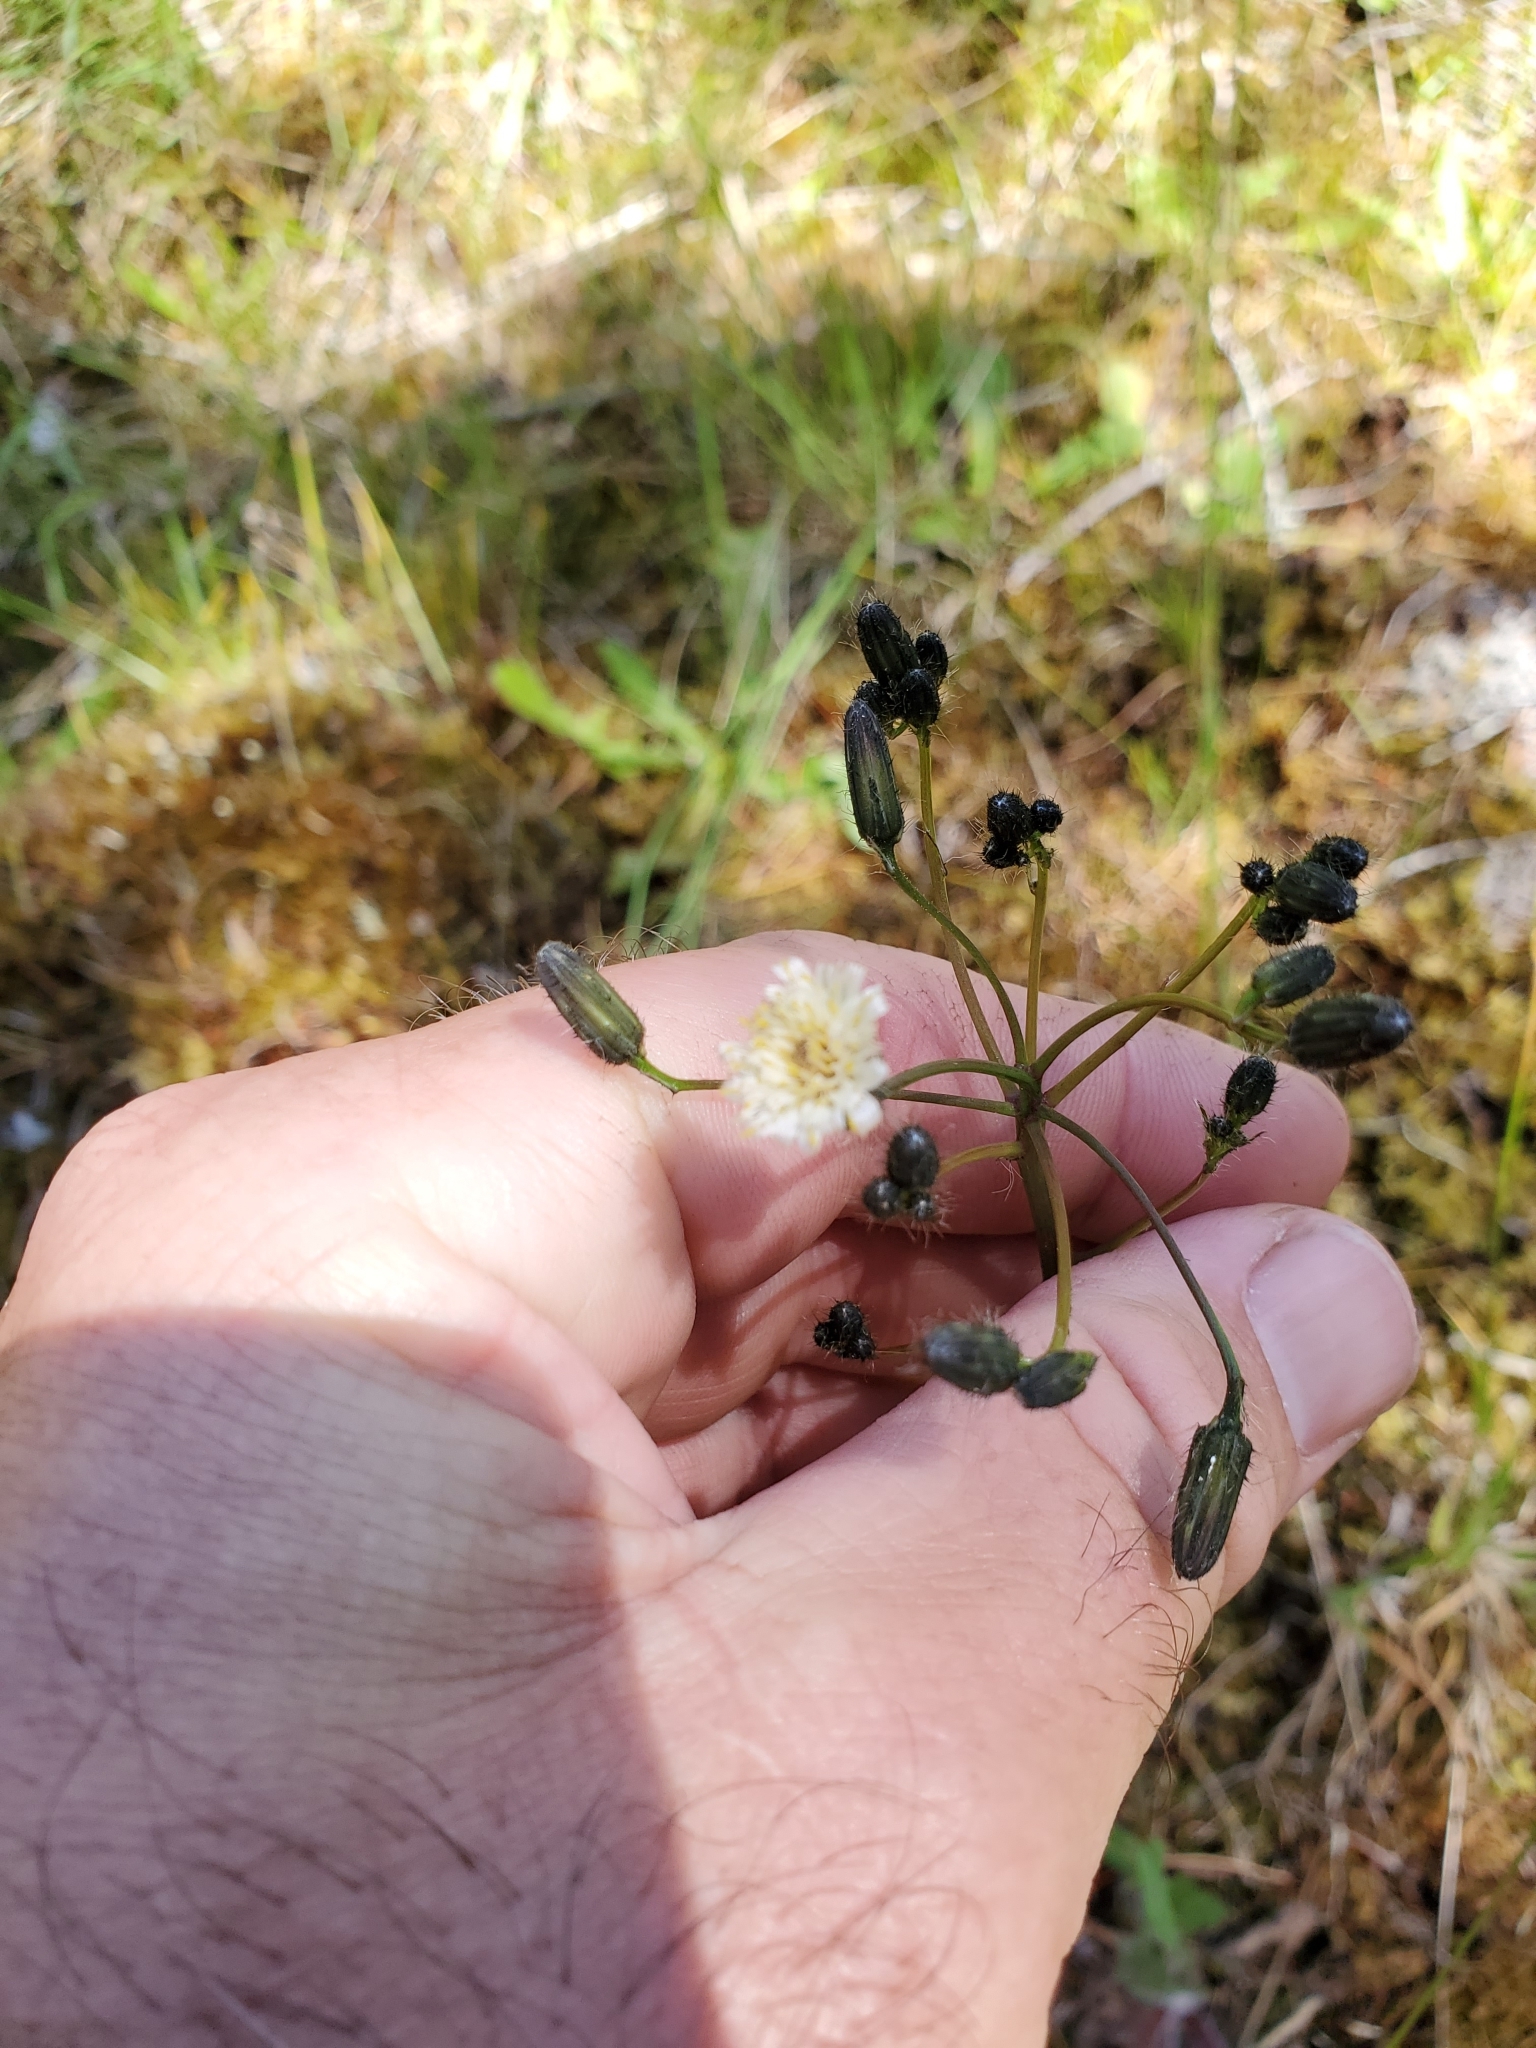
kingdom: Plantae
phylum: Tracheophyta
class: Magnoliopsida
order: Asterales
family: Asteraceae
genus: Hieracium
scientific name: Hieracium albiflorum
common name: White hawkweed
